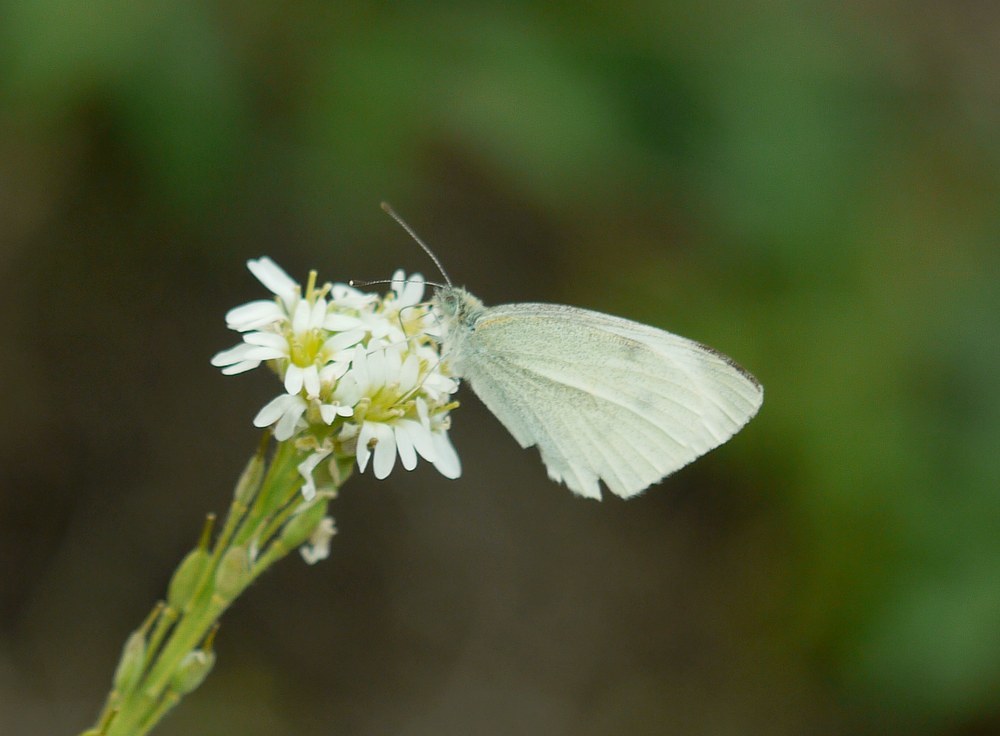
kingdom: Animalia
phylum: Arthropoda
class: Insecta
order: Lepidoptera
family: Pieridae
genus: Pieris
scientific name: Pieris rapae
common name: Small white
